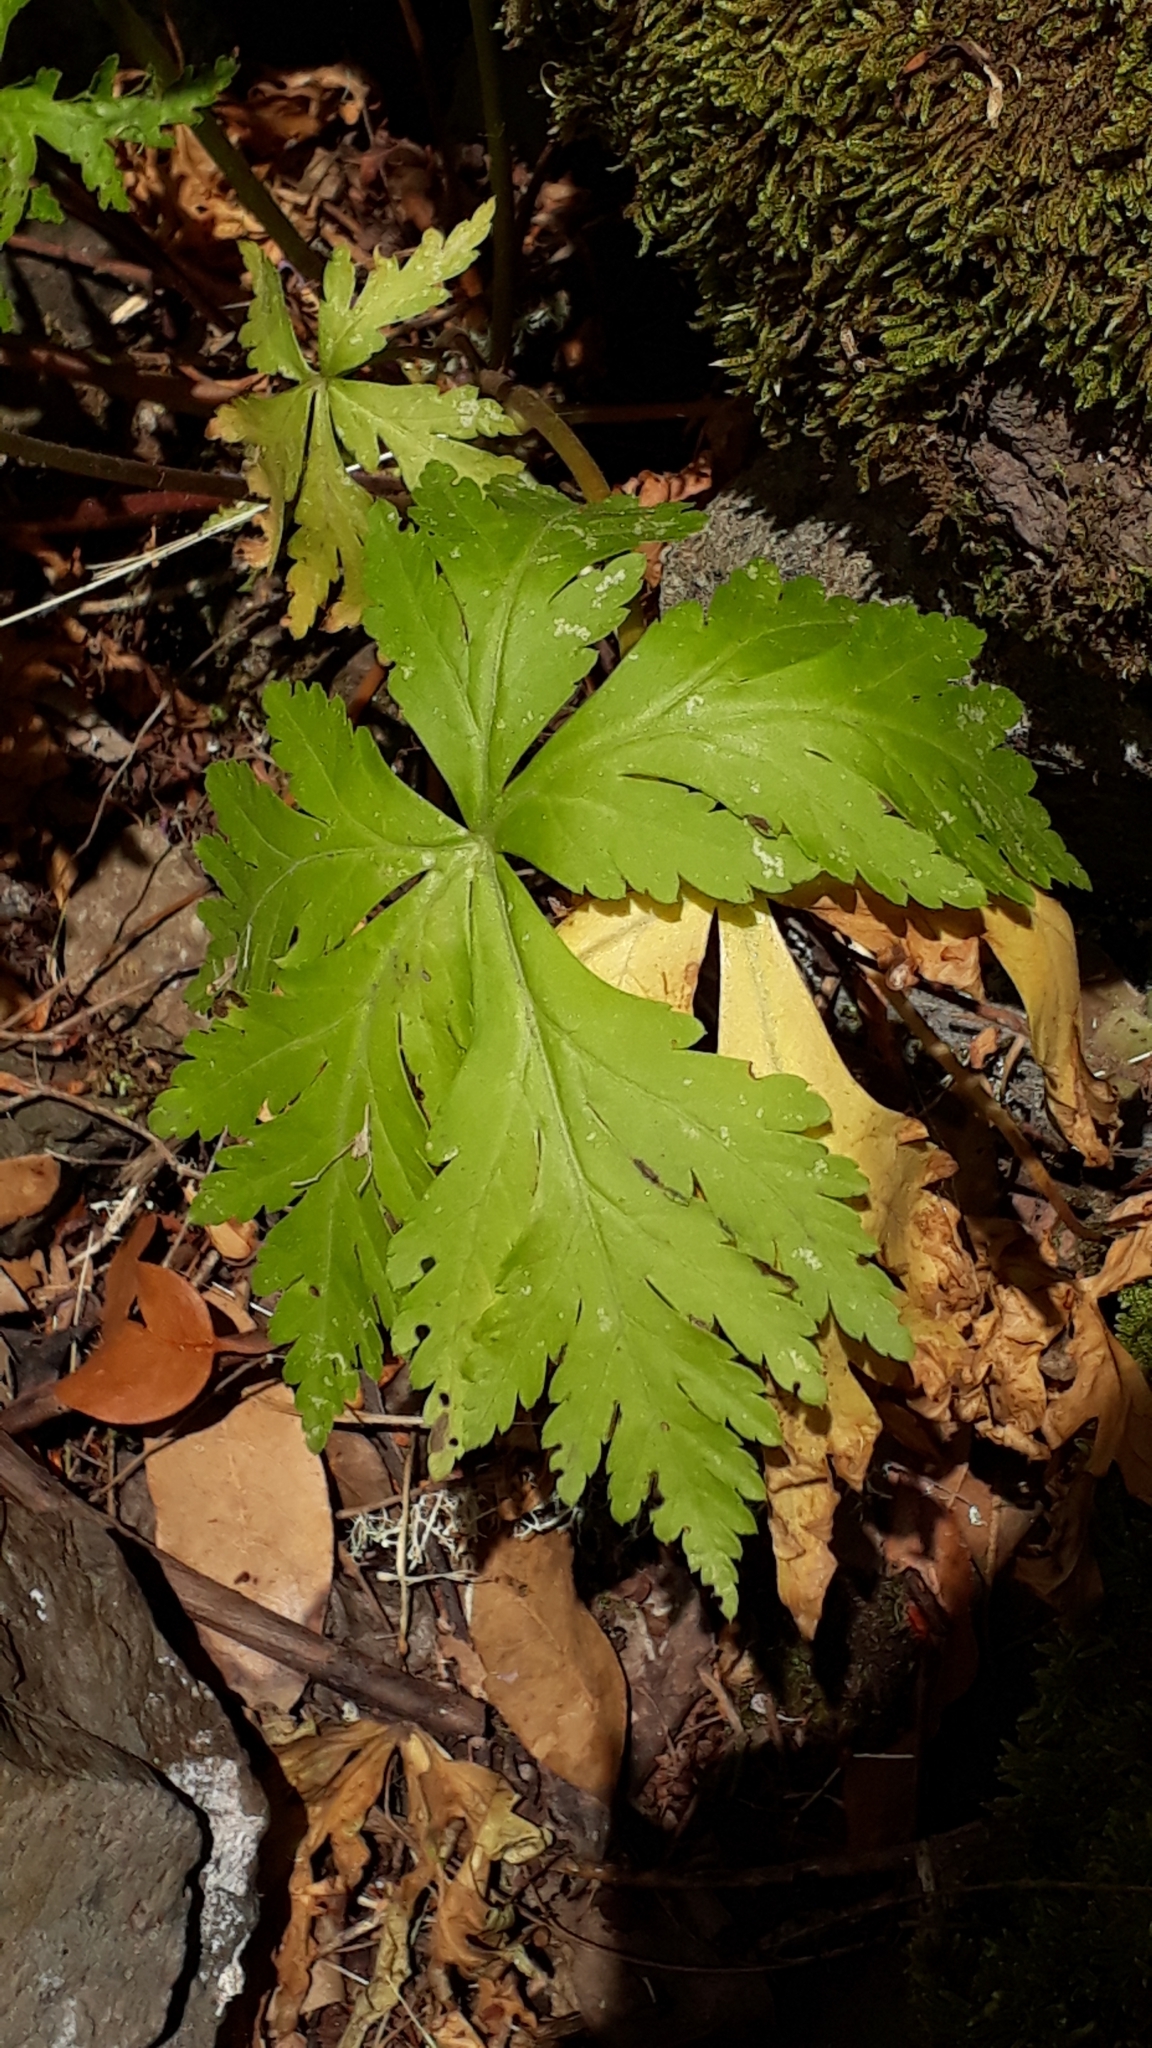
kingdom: Plantae
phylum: Tracheophyta
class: Magnoliopsida
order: Geraniales
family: Geraniaceae
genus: Geranium
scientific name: Geranium reuteri
